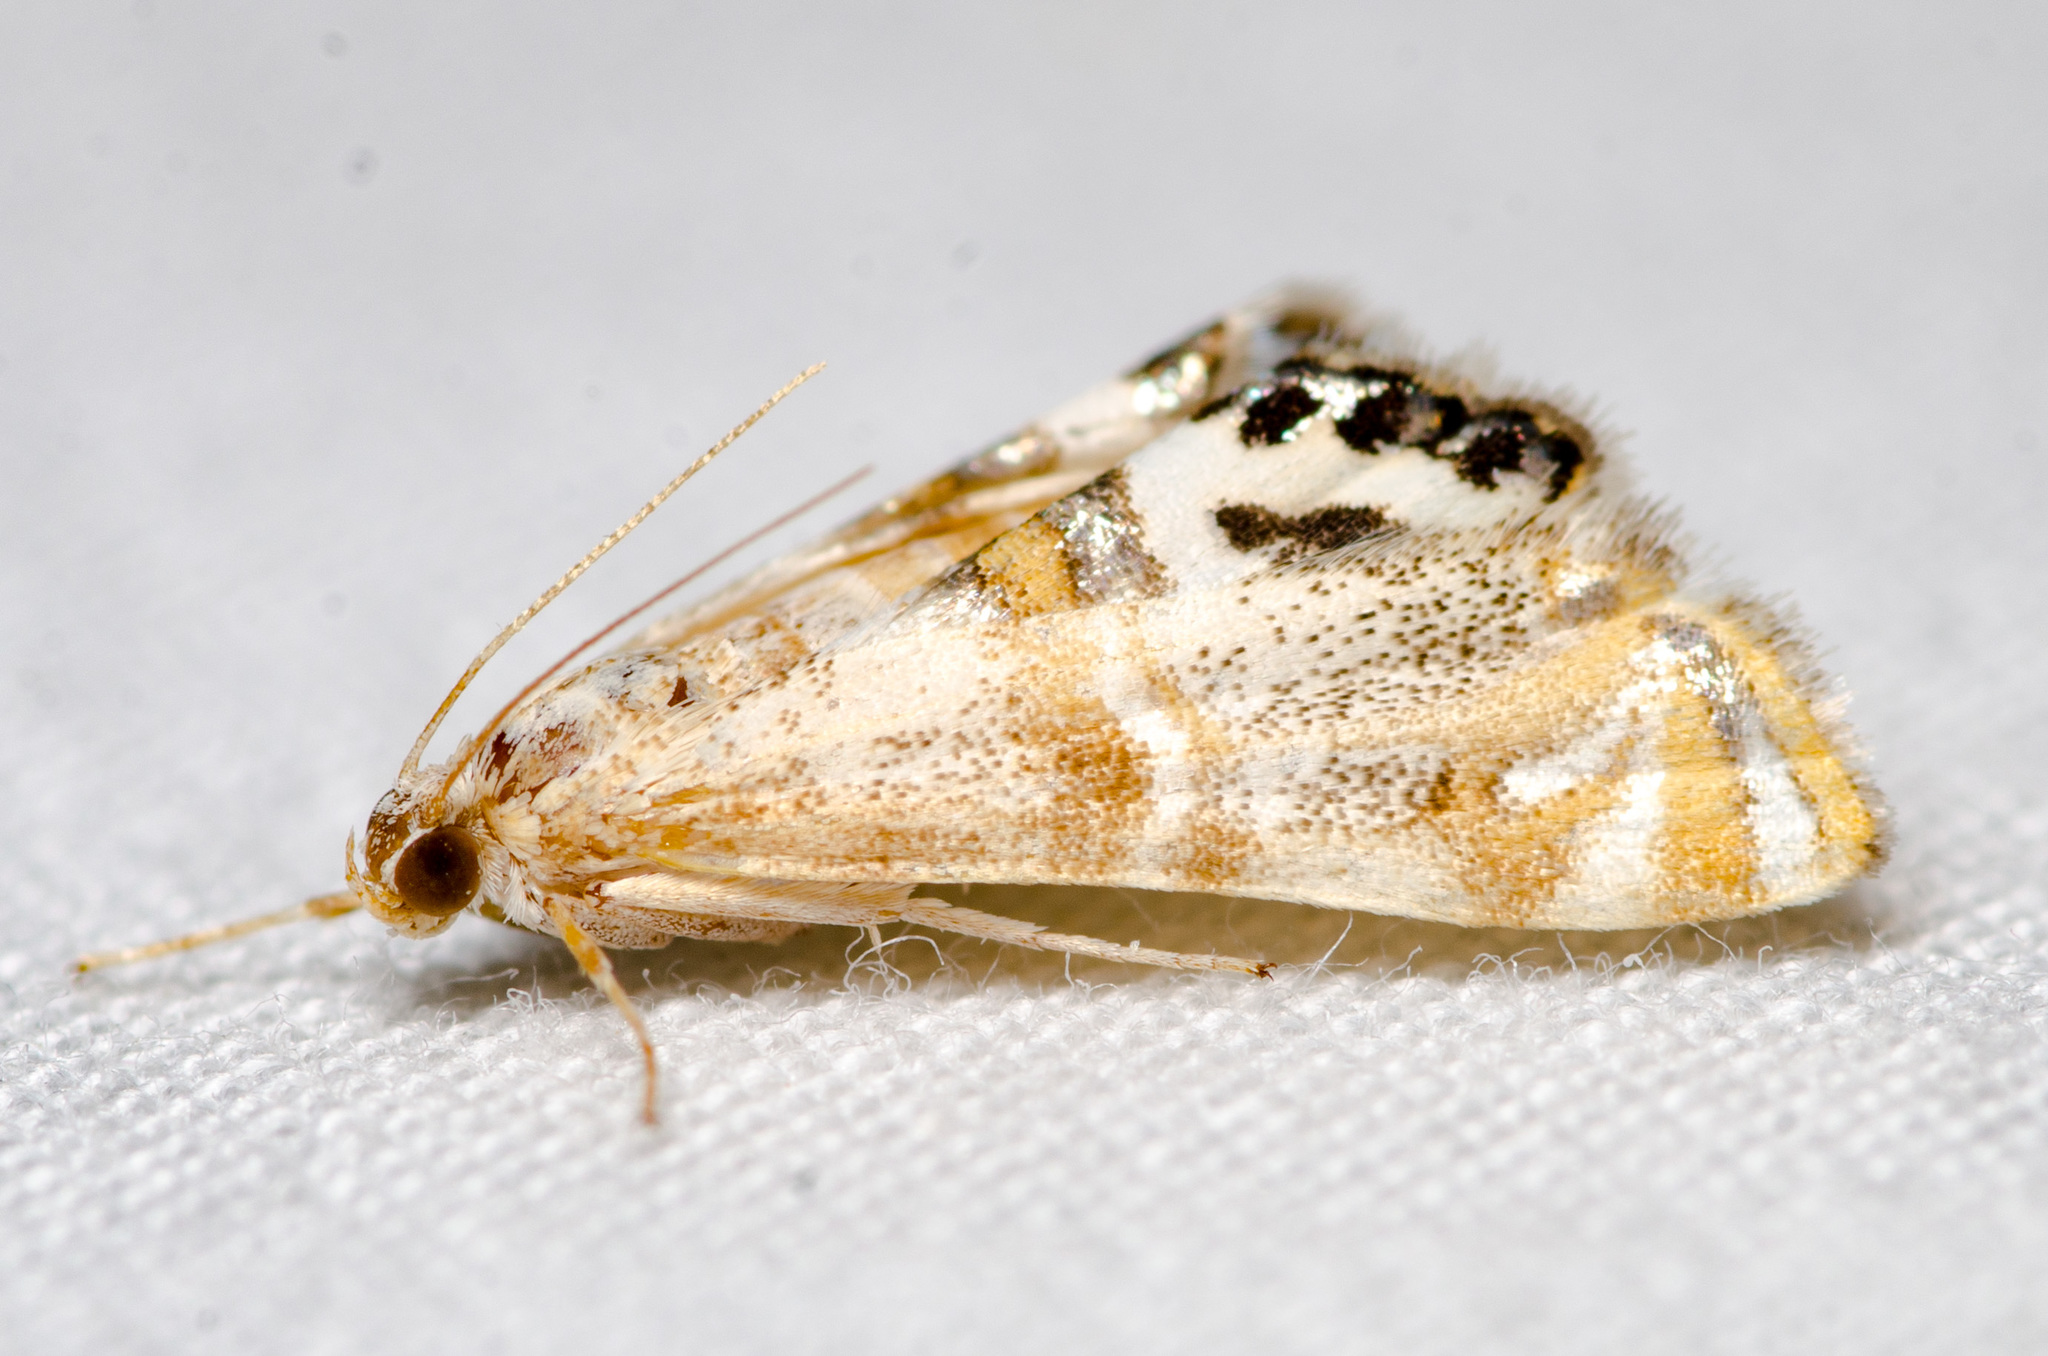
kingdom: Animalia
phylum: Arthropoda
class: Insecta
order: Lepidoptera
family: Crambidae
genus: Petrophila
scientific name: Petrophila bifascialis
